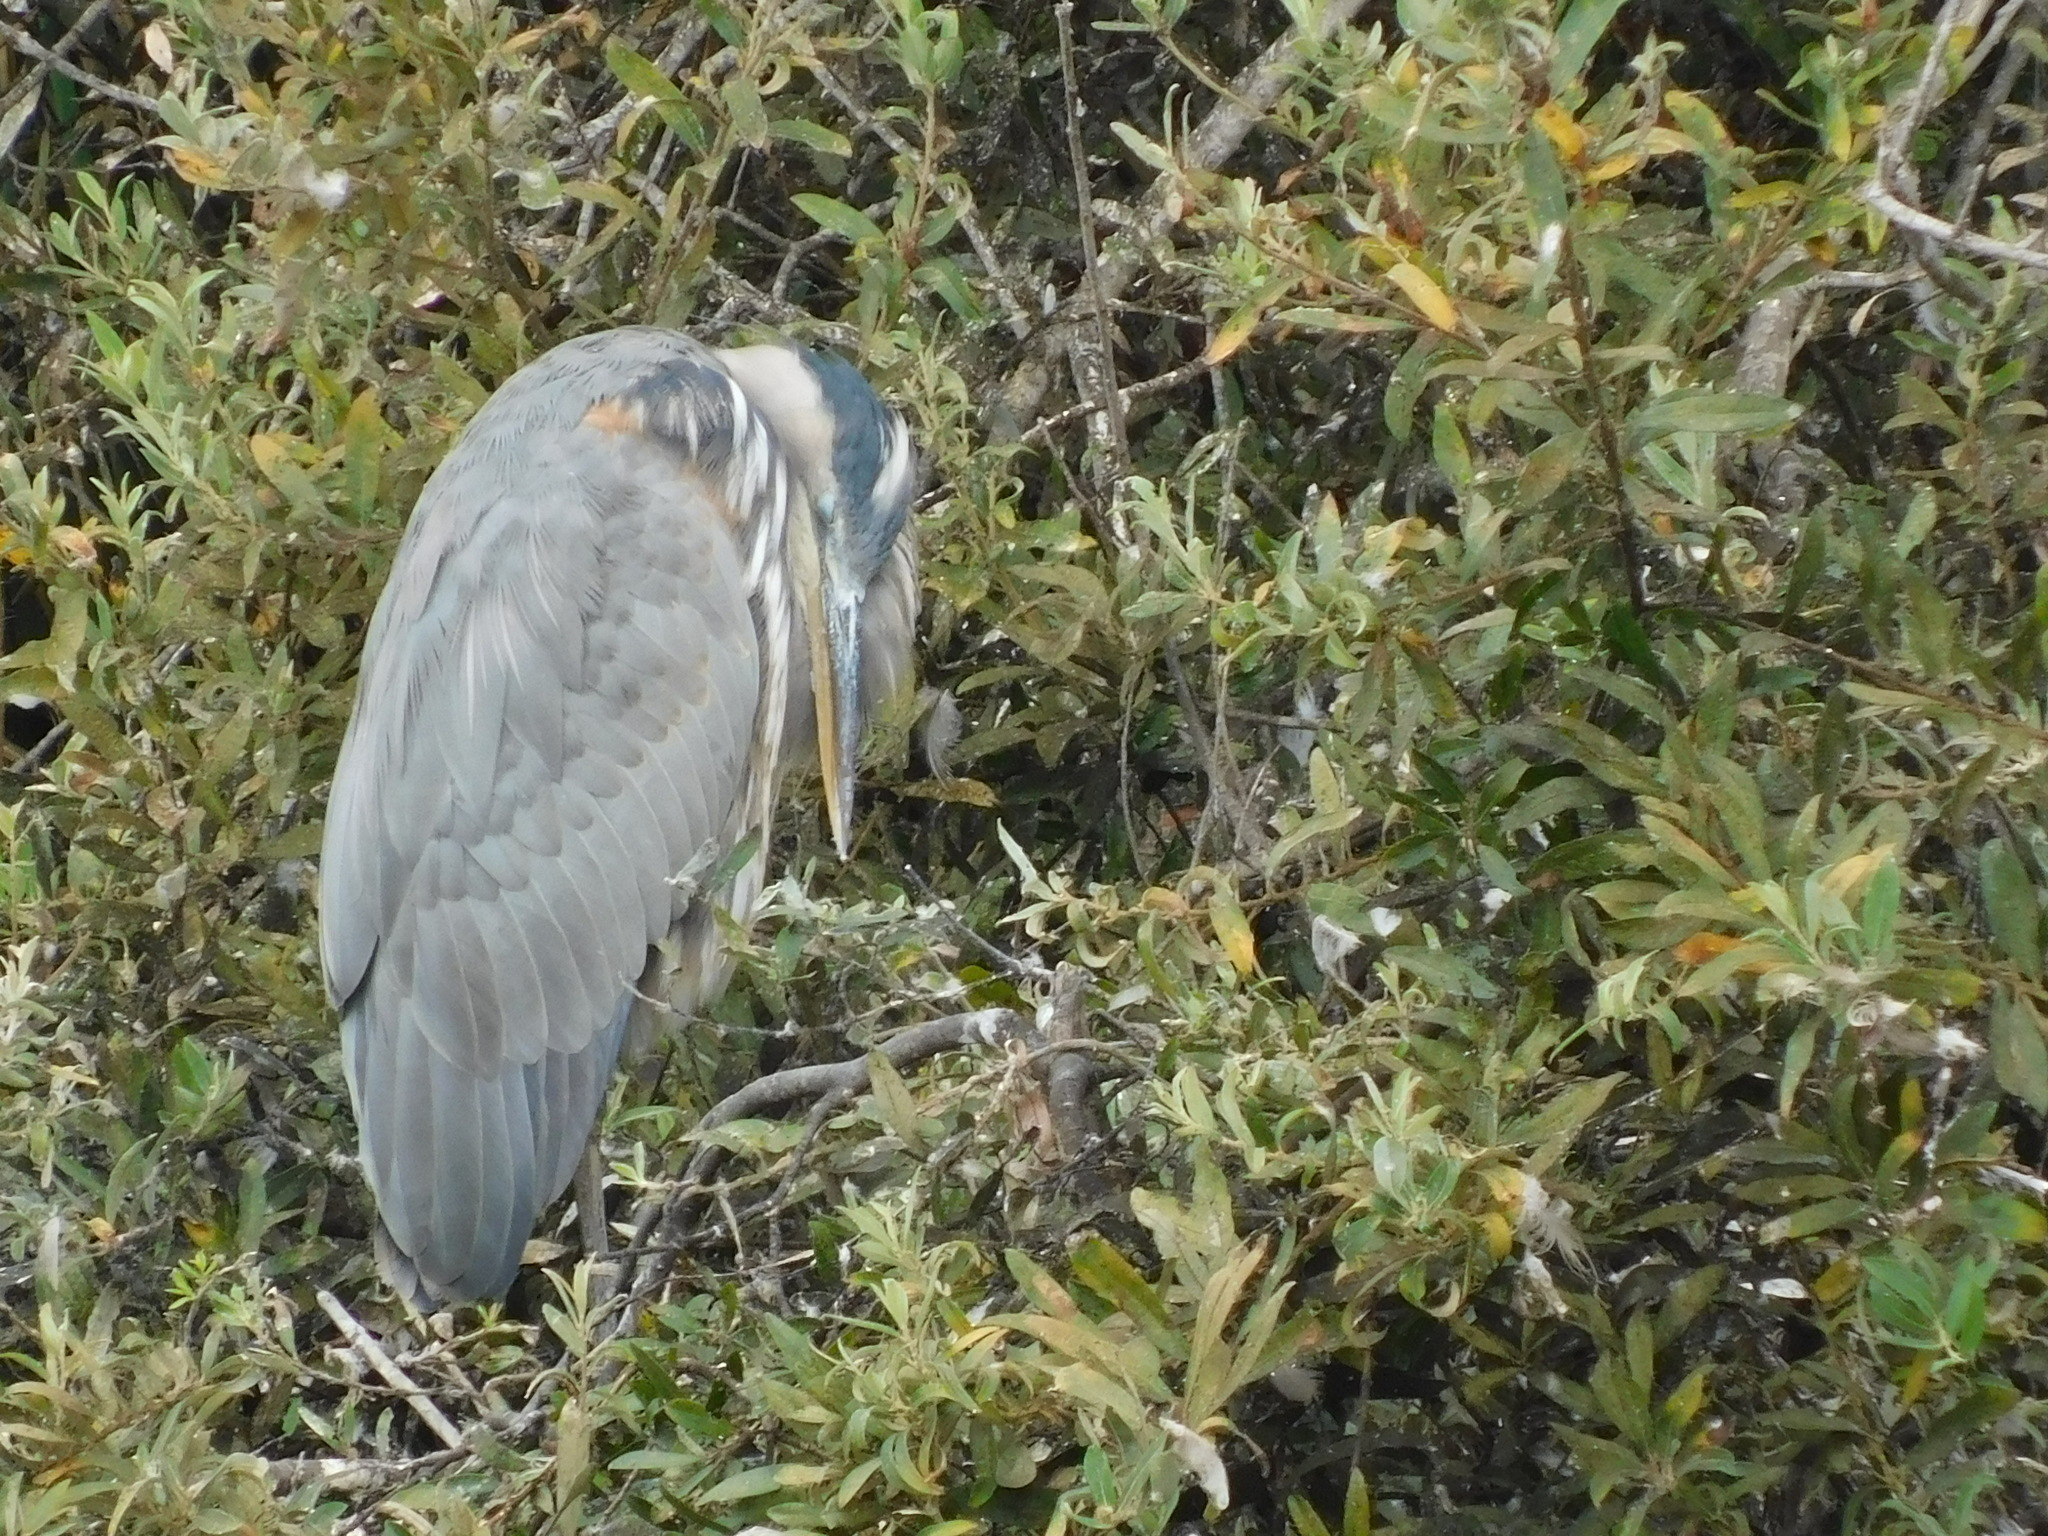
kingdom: Animalia
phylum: Chordata
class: Aves
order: Pelecaniformes
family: Ardeidae
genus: Ardea
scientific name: Ardea herodias
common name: Great blue heron
